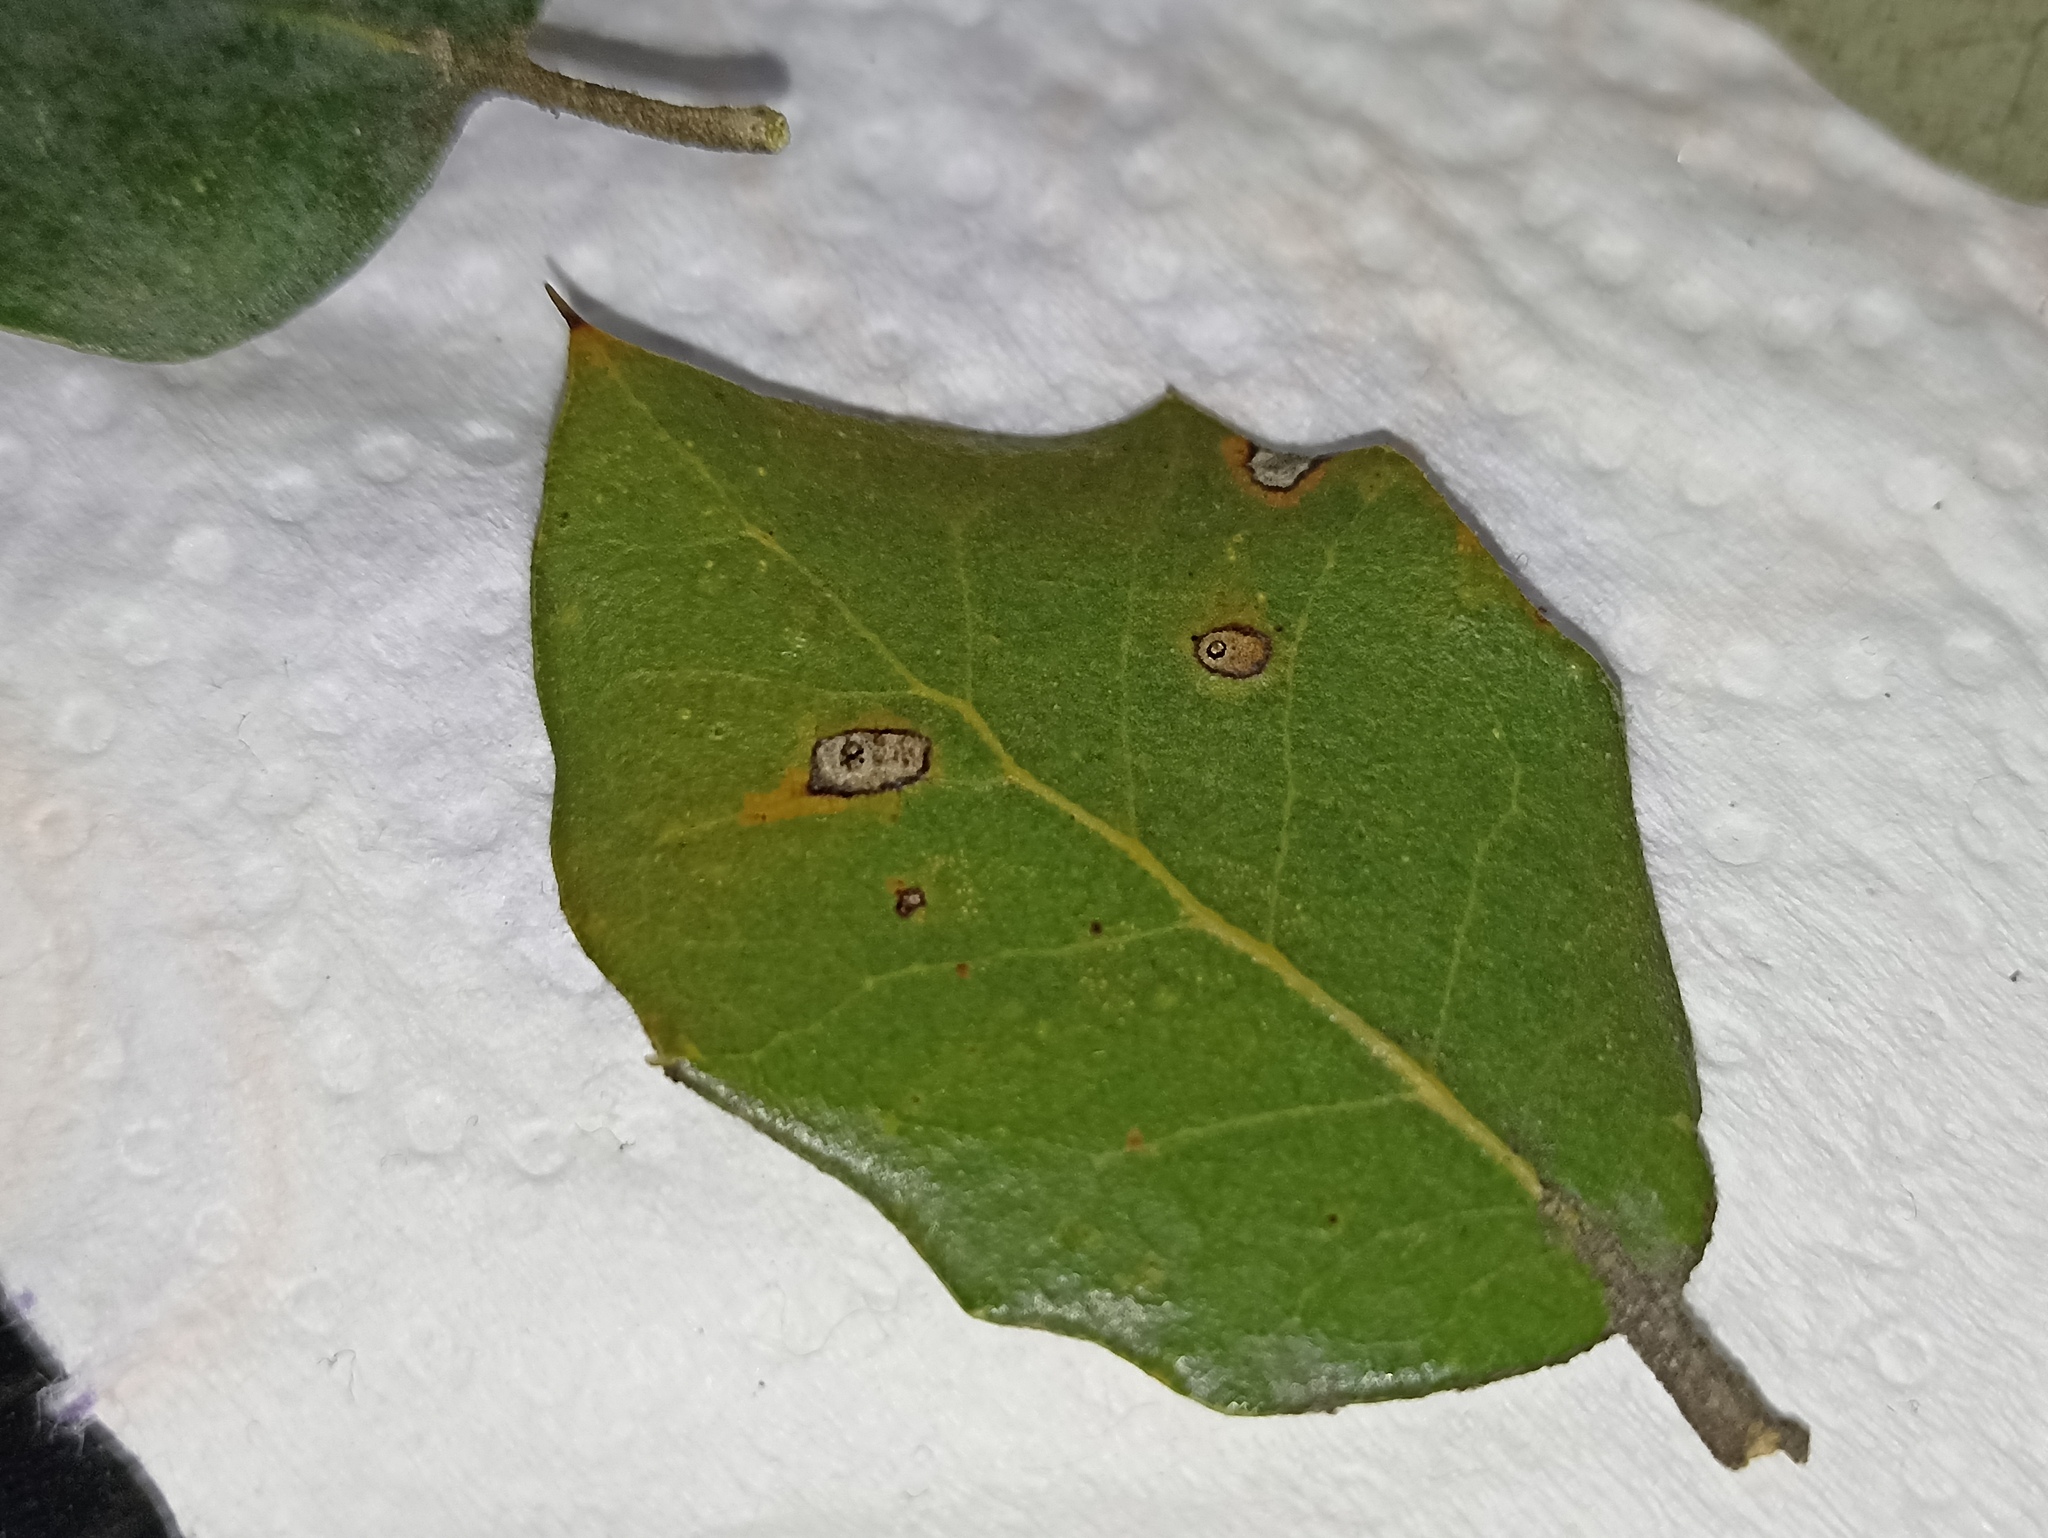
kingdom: Animalia
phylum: Arthropoda
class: Insecta
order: Hymenoptera
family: Cynipidae
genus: Plagiotrochus
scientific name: Plagiotrochus coriaceus
